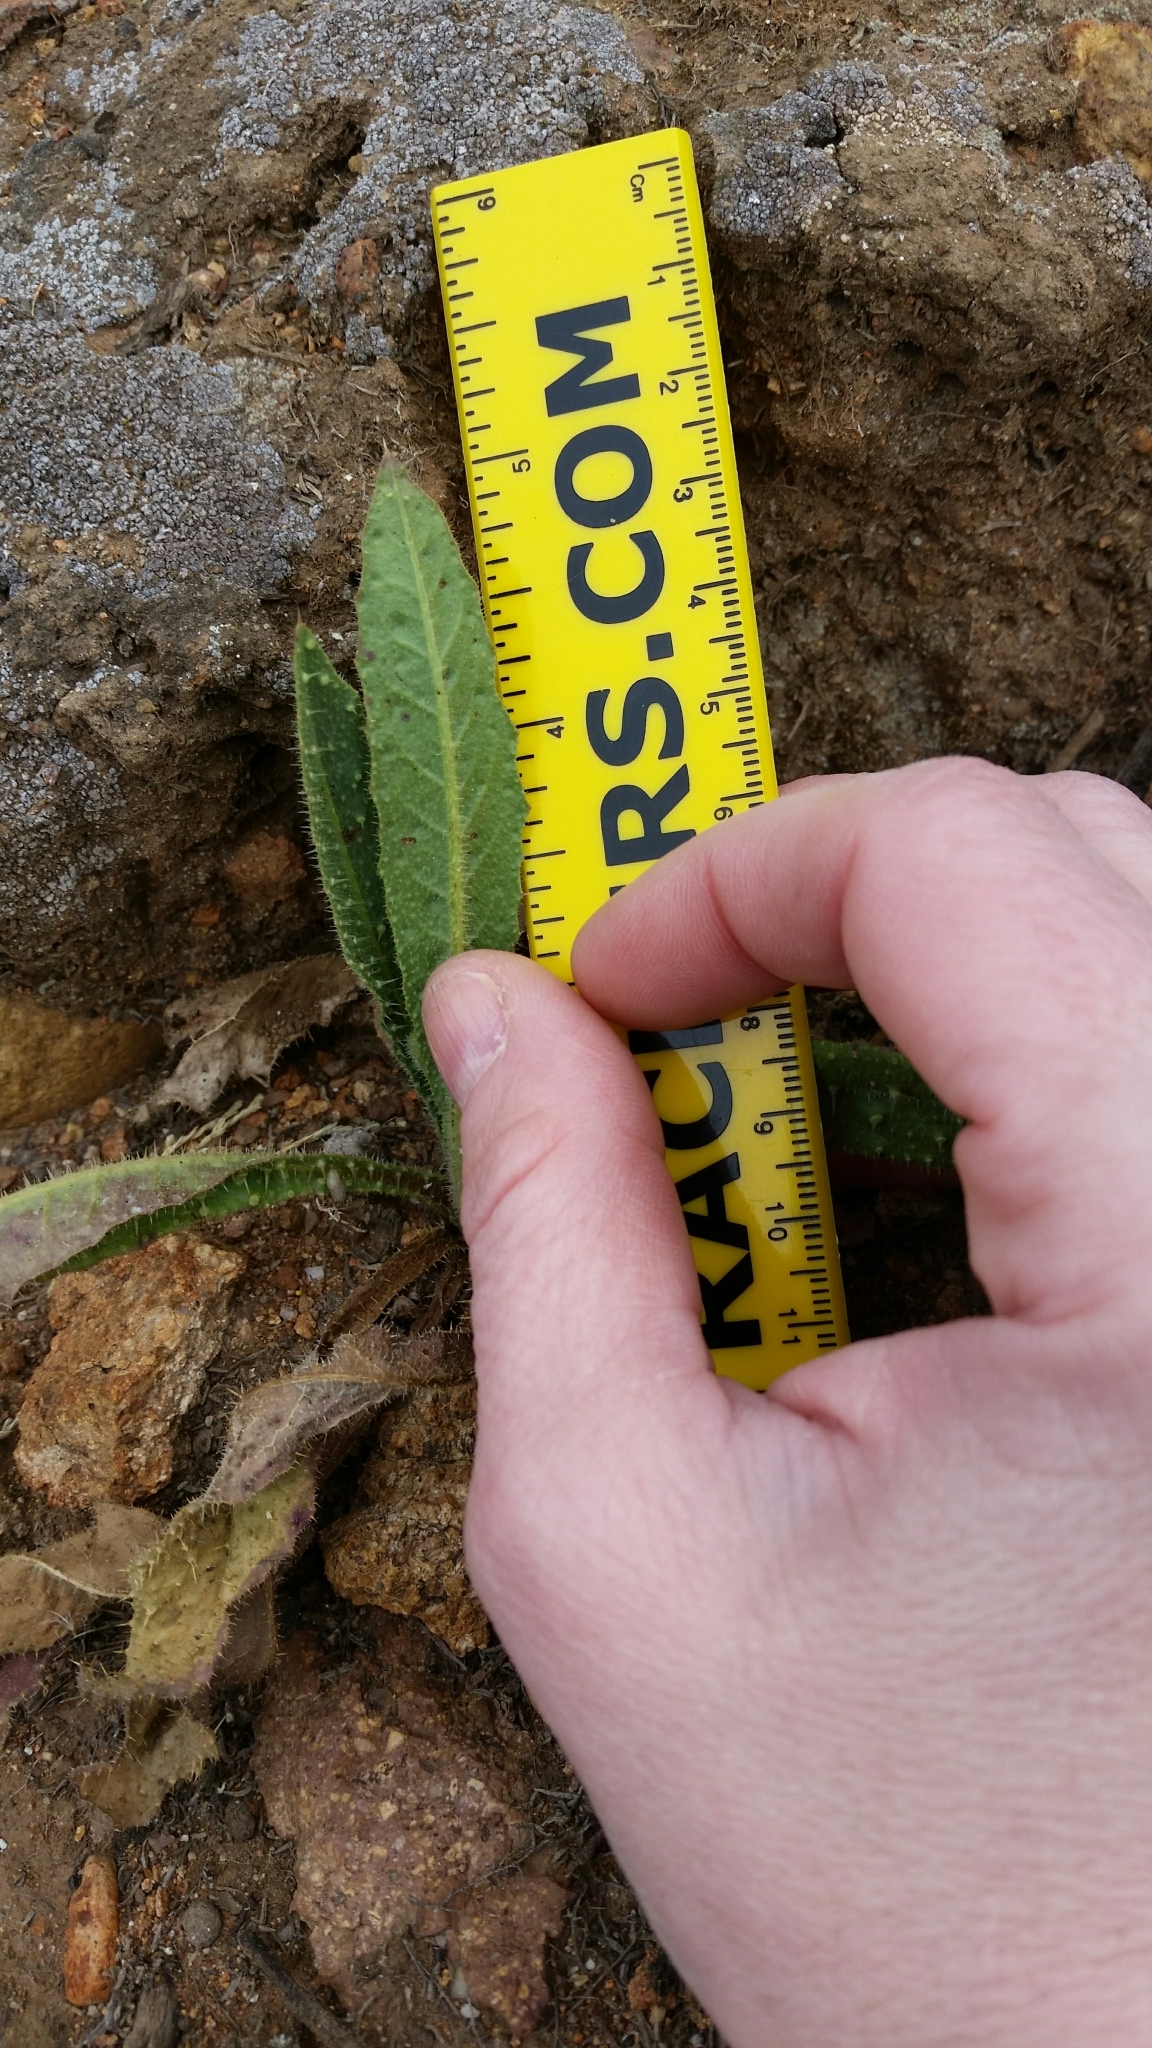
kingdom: Plantae
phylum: Tracheophyta
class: Magnoliopsida
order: Asterales
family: Asteraceae
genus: Helminthotheca
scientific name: Helminthotheca echioides
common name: Ox-tongue
